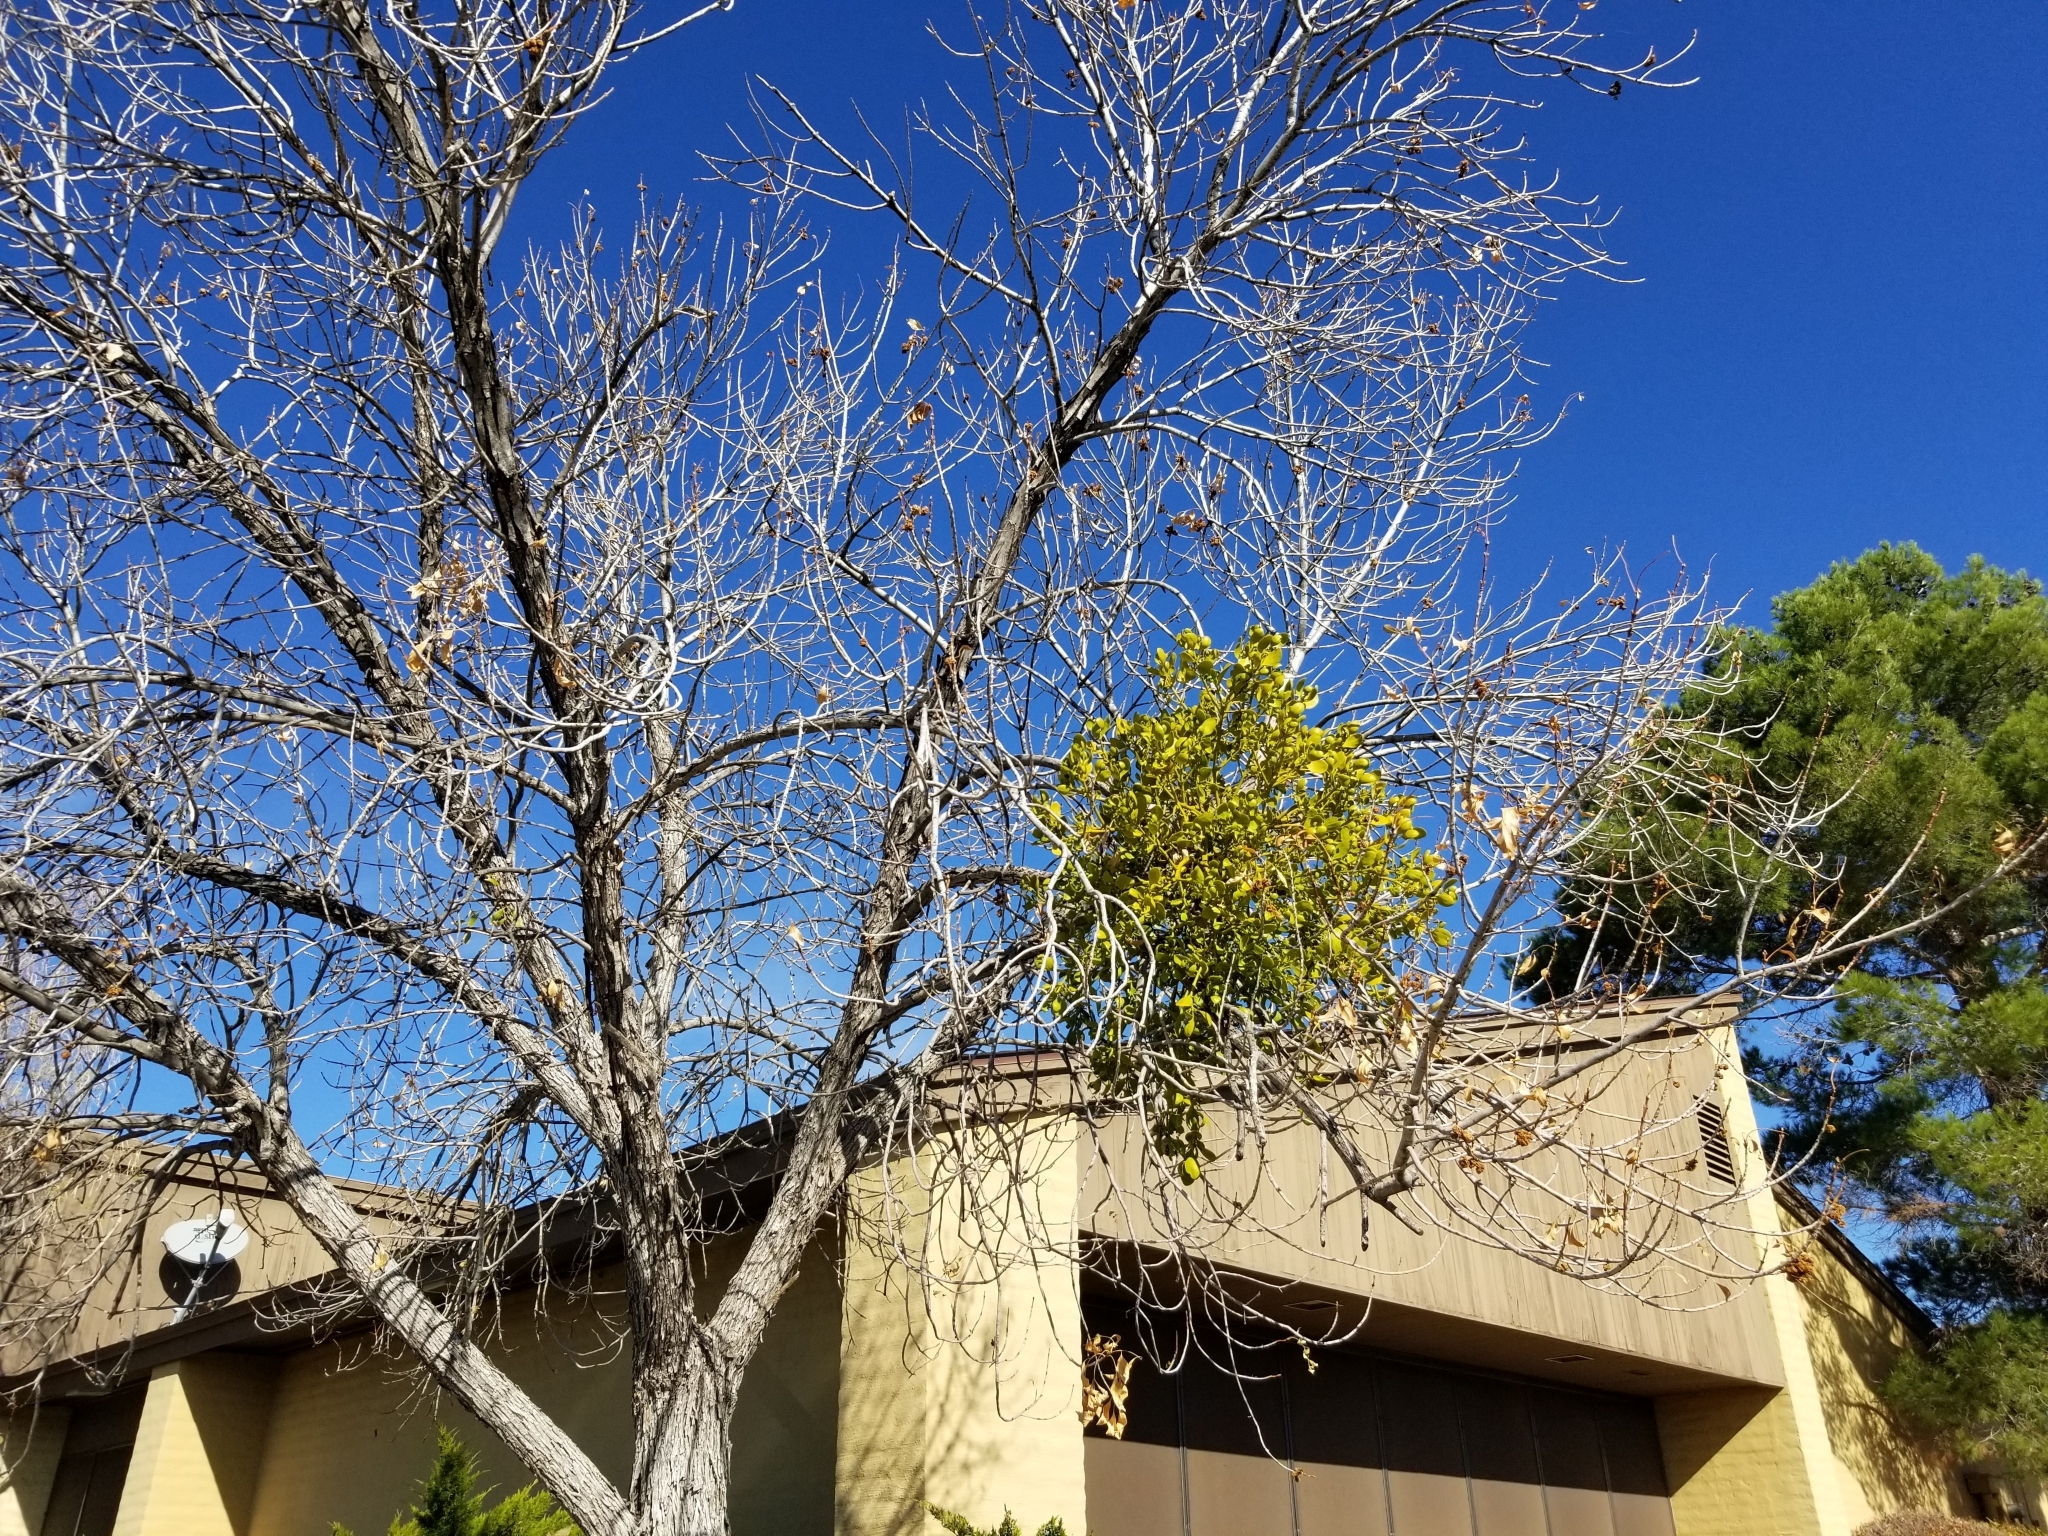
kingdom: Plantae
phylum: Tracheophyta
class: Magnoliopsida
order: Santalales
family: Viscaceae
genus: Phoradendron
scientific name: Phoradendron
